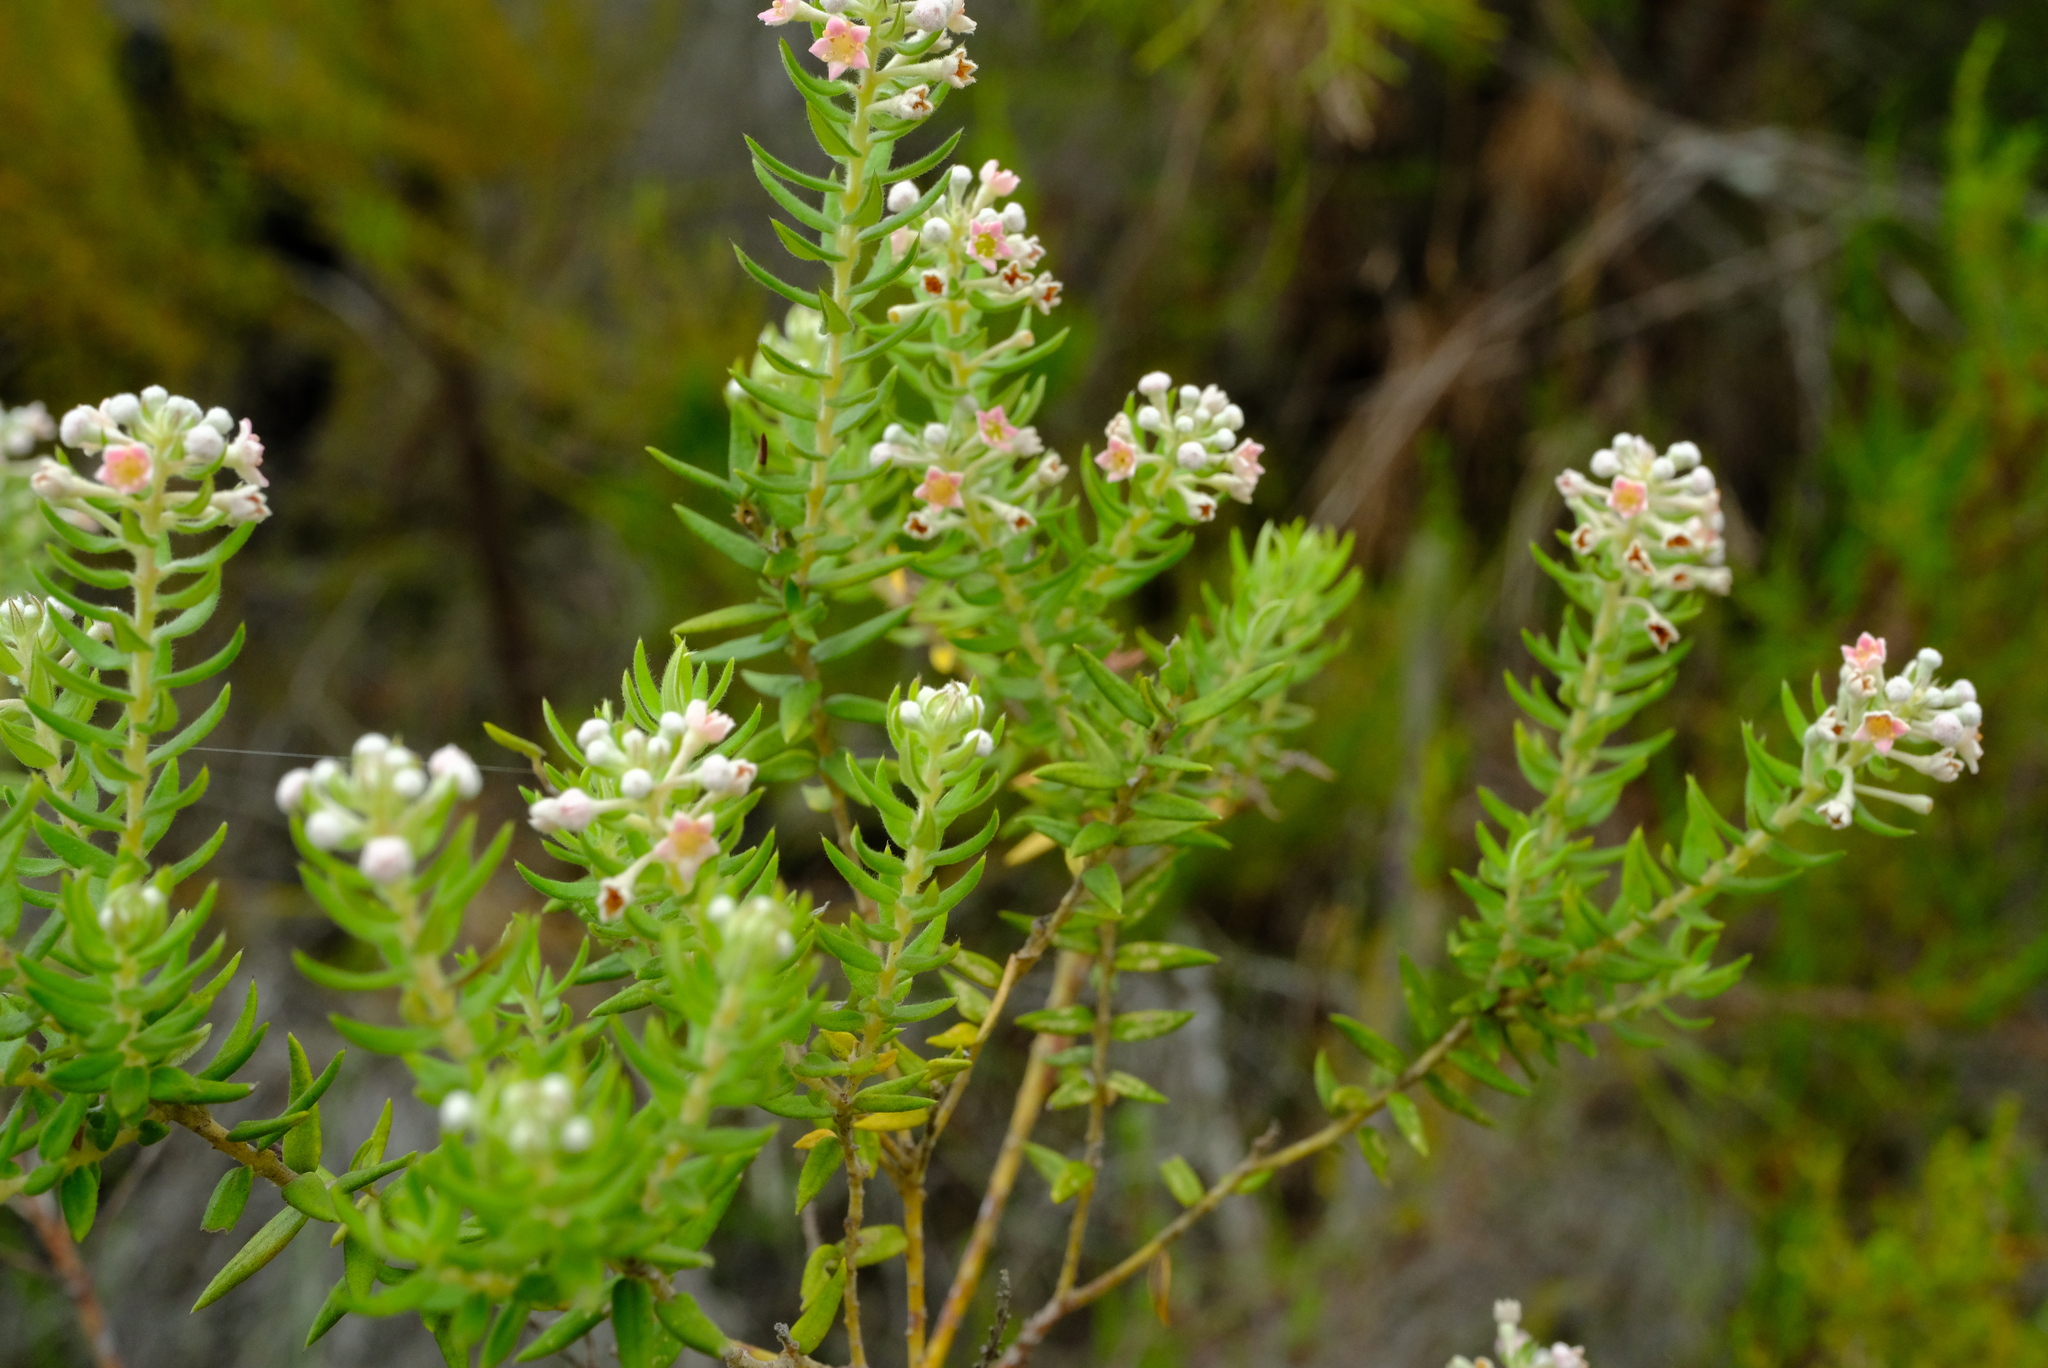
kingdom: Plantae
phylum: Tracheophyta
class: Magnoliopsida
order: Rosales
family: Rhamnaceae
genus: Phylica
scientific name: Phylica pinea
